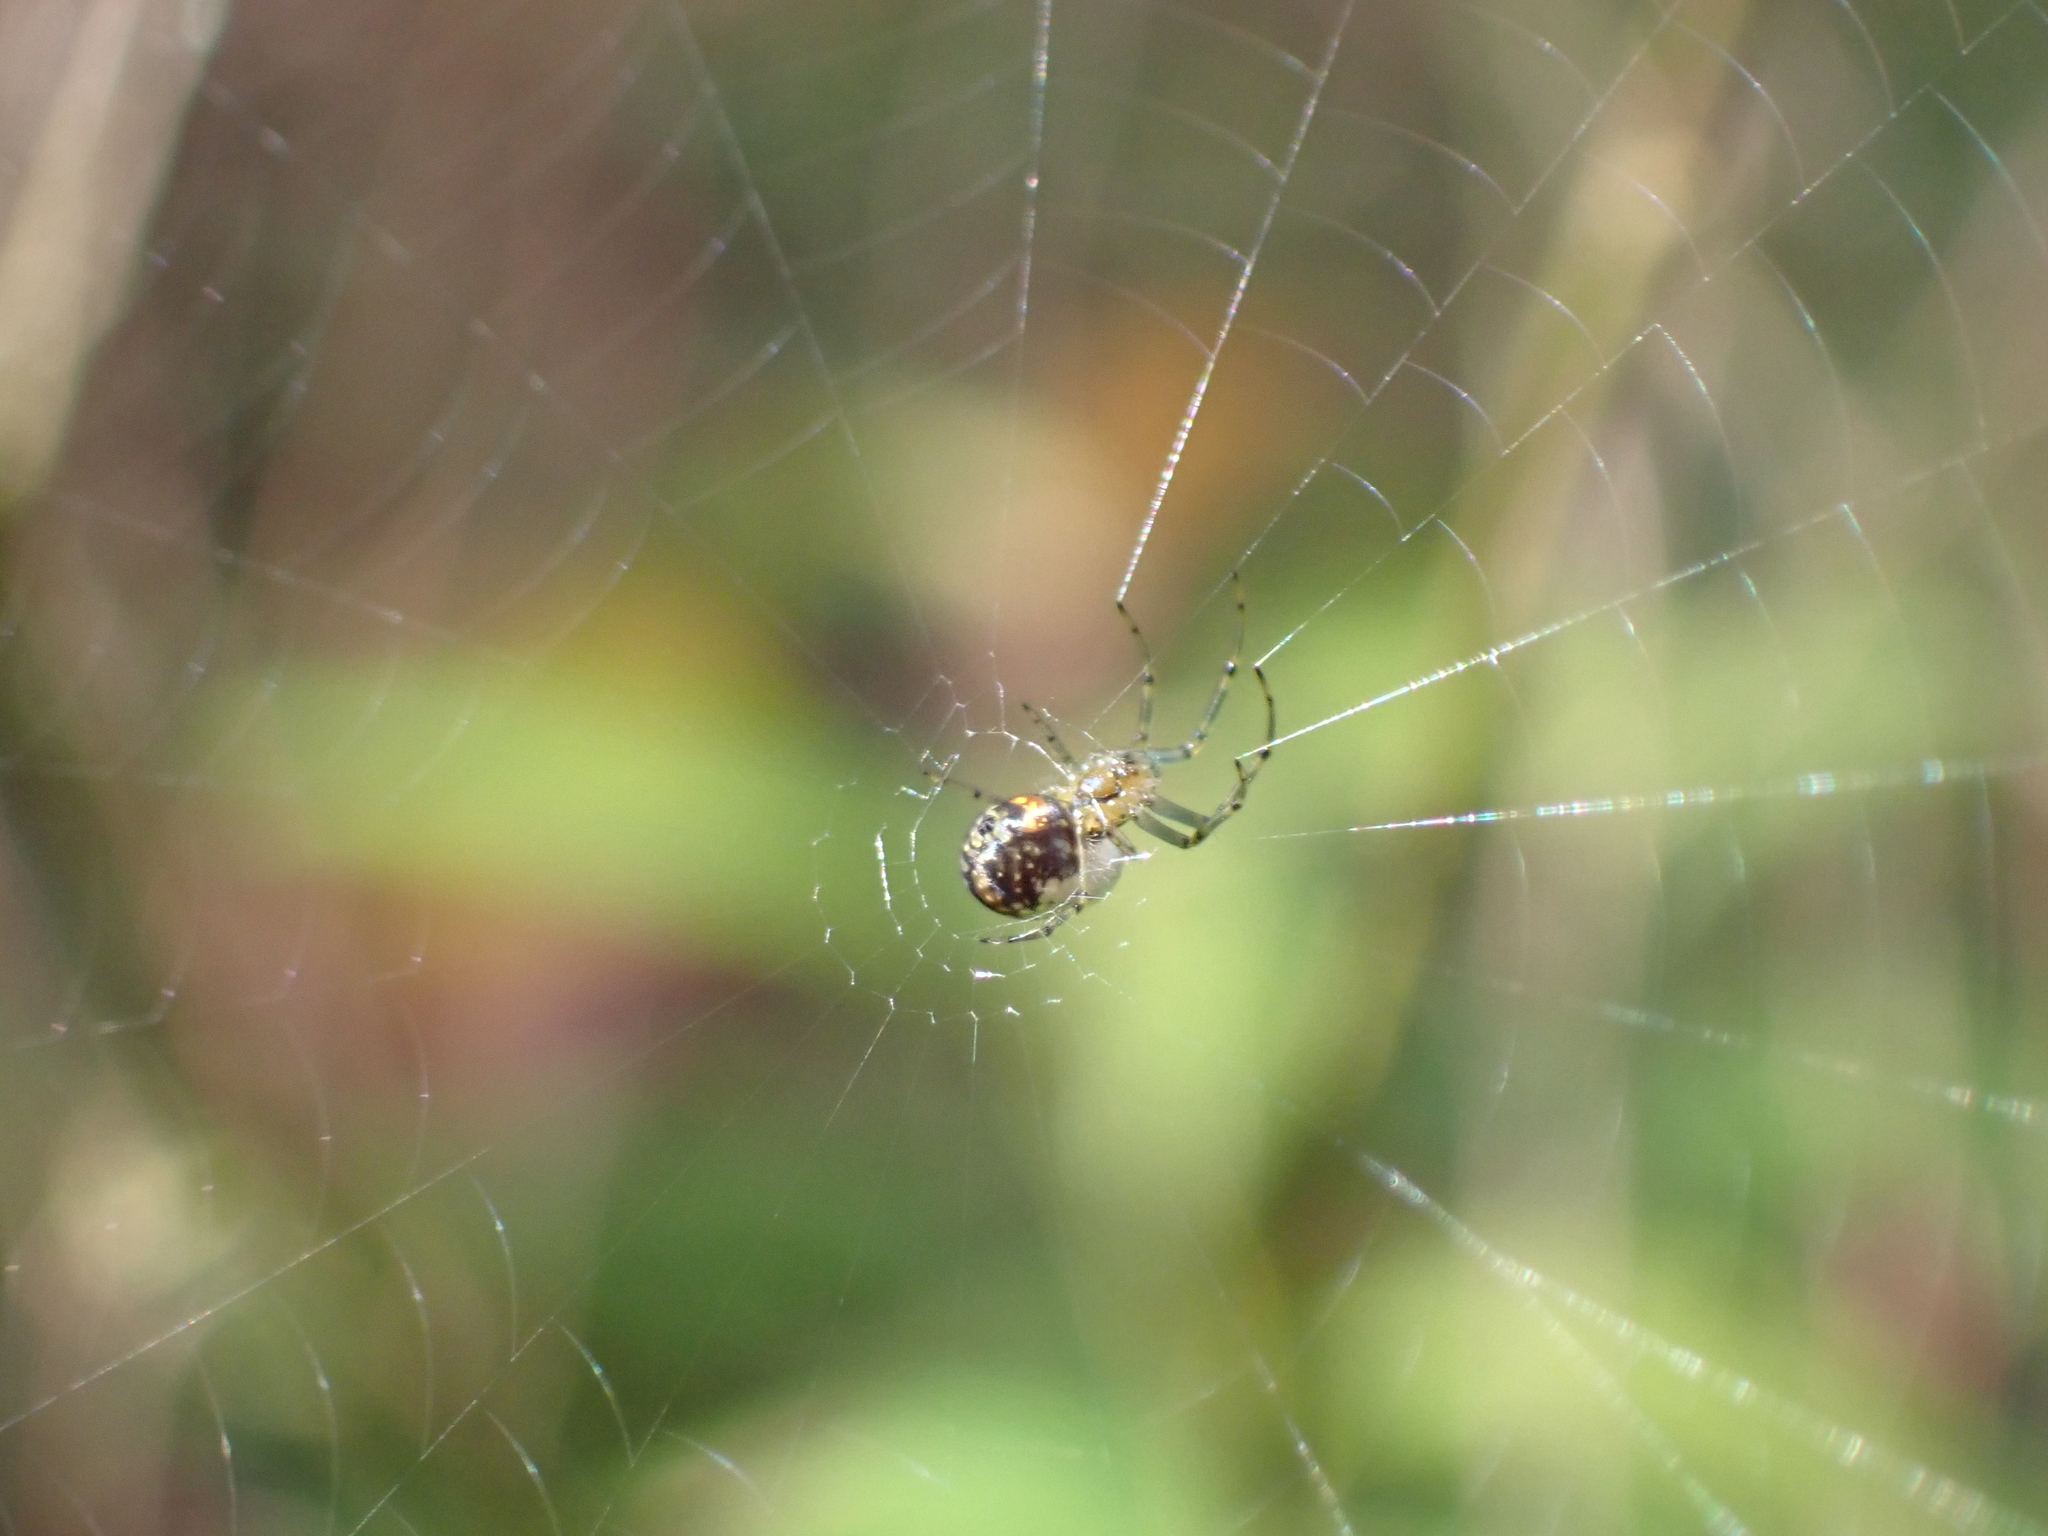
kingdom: Animalia
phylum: Arthropoda
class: Arachnida
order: Araneae
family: Tetragnathidae
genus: Leucauge
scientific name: Leucauge venusta
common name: Longjawed orb weavers
